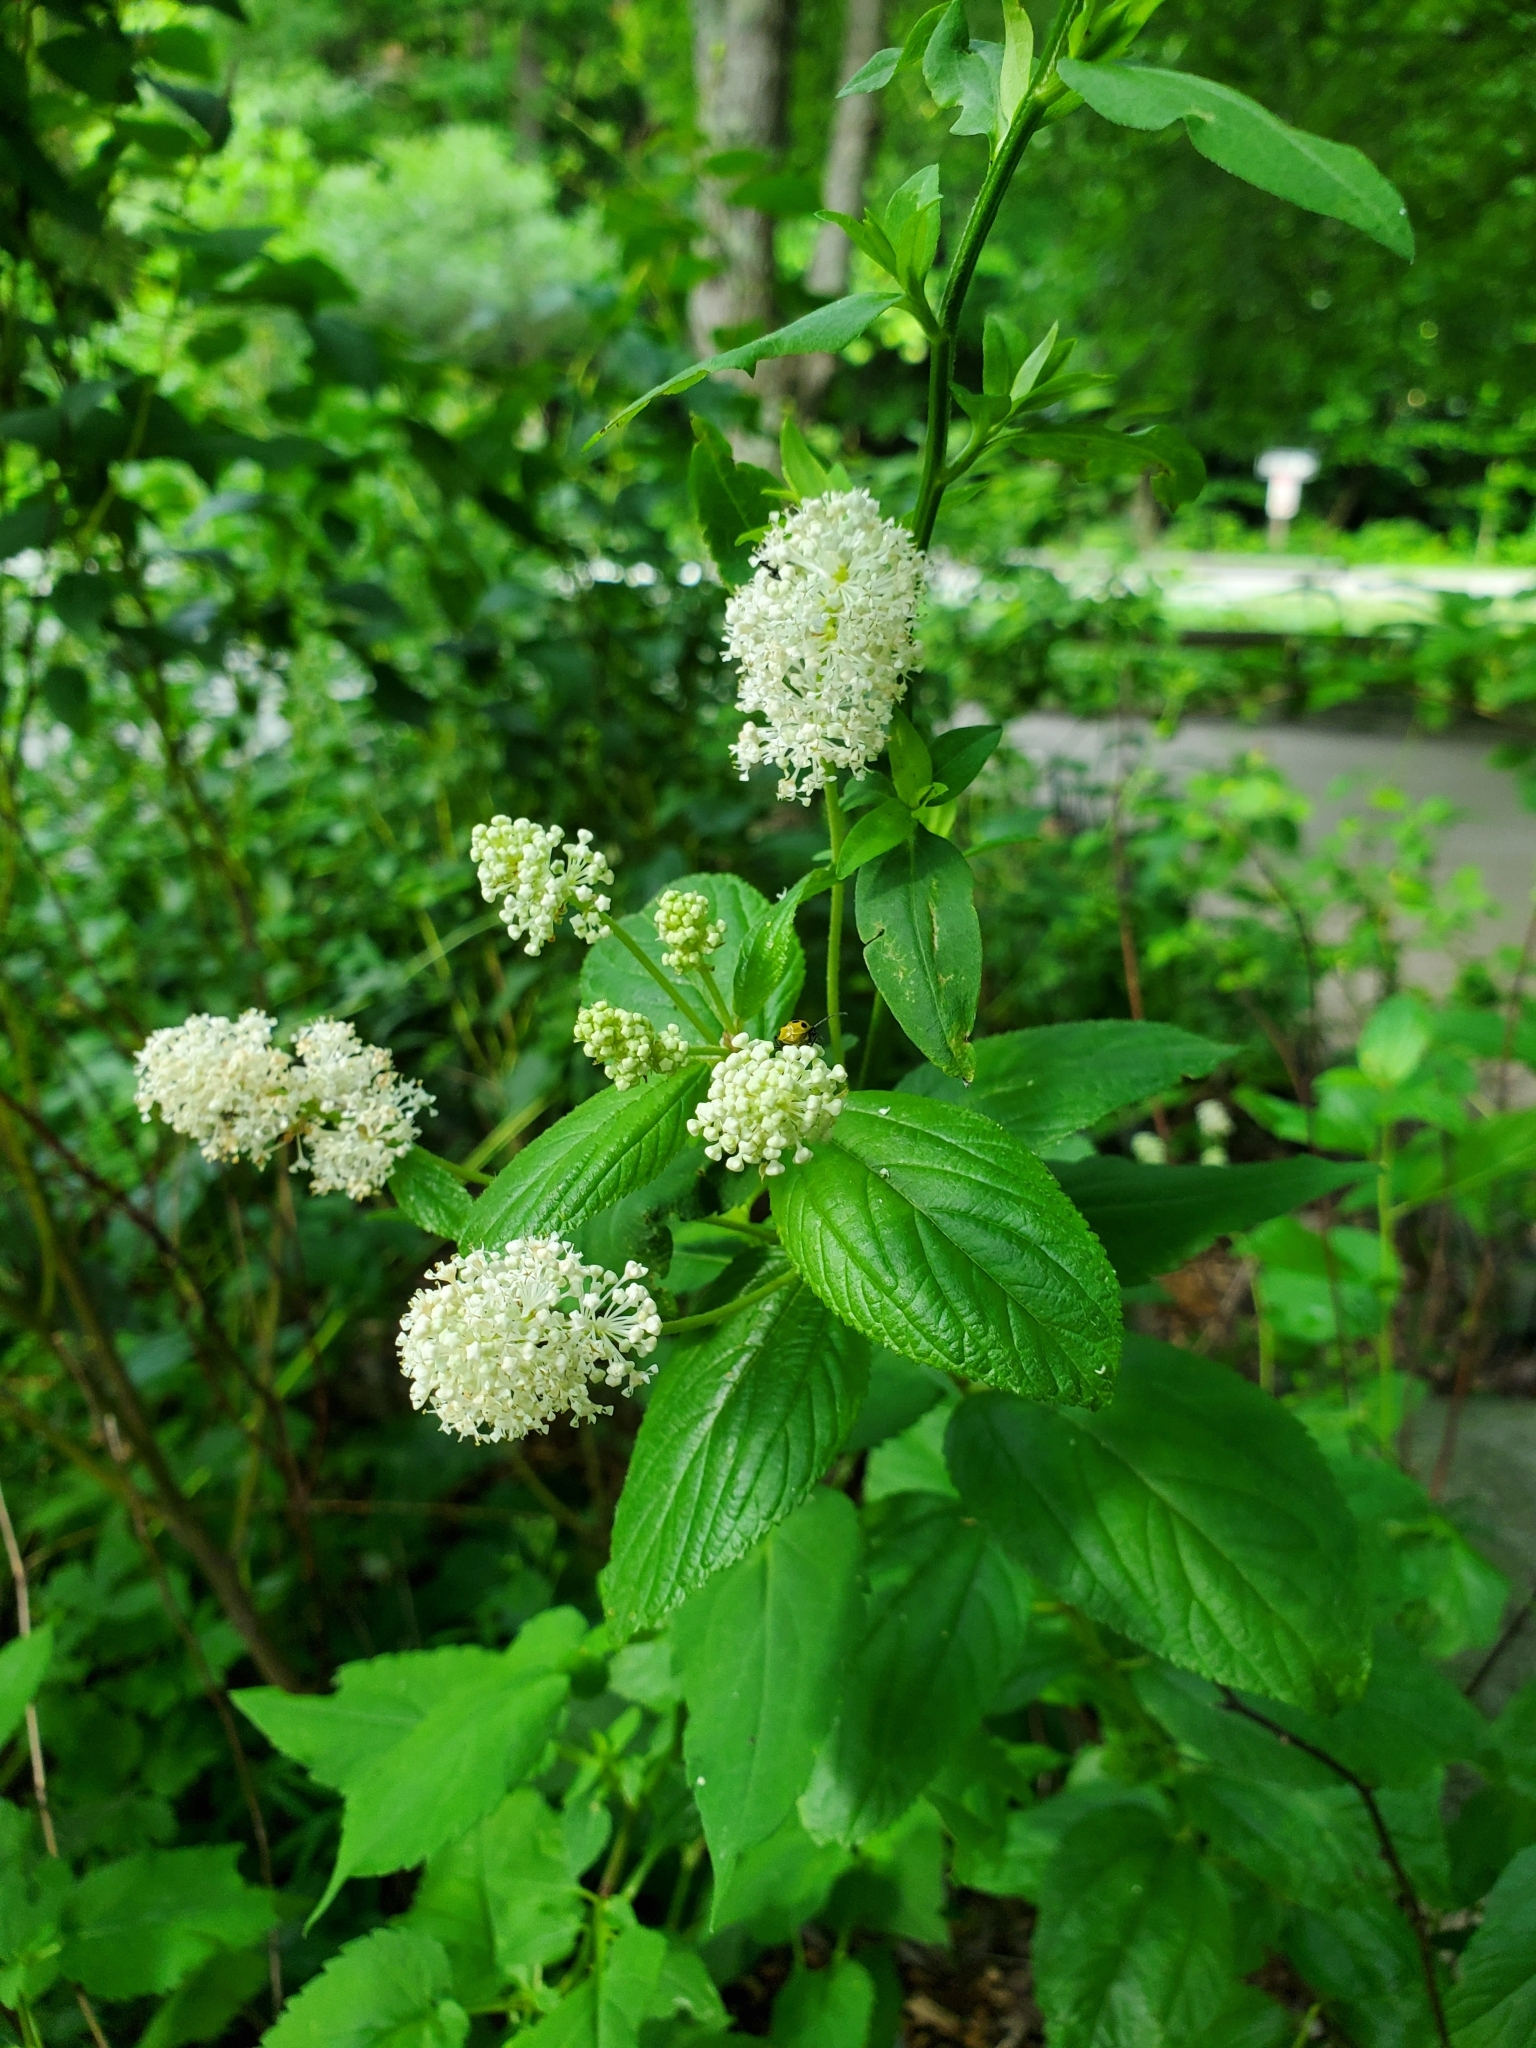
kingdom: Plantae
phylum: Tracheophyta
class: Magnoliopsida
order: Rosales
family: Rhamnaceae
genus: Ceanothus
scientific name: Ceanothus americanus
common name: Redroot
